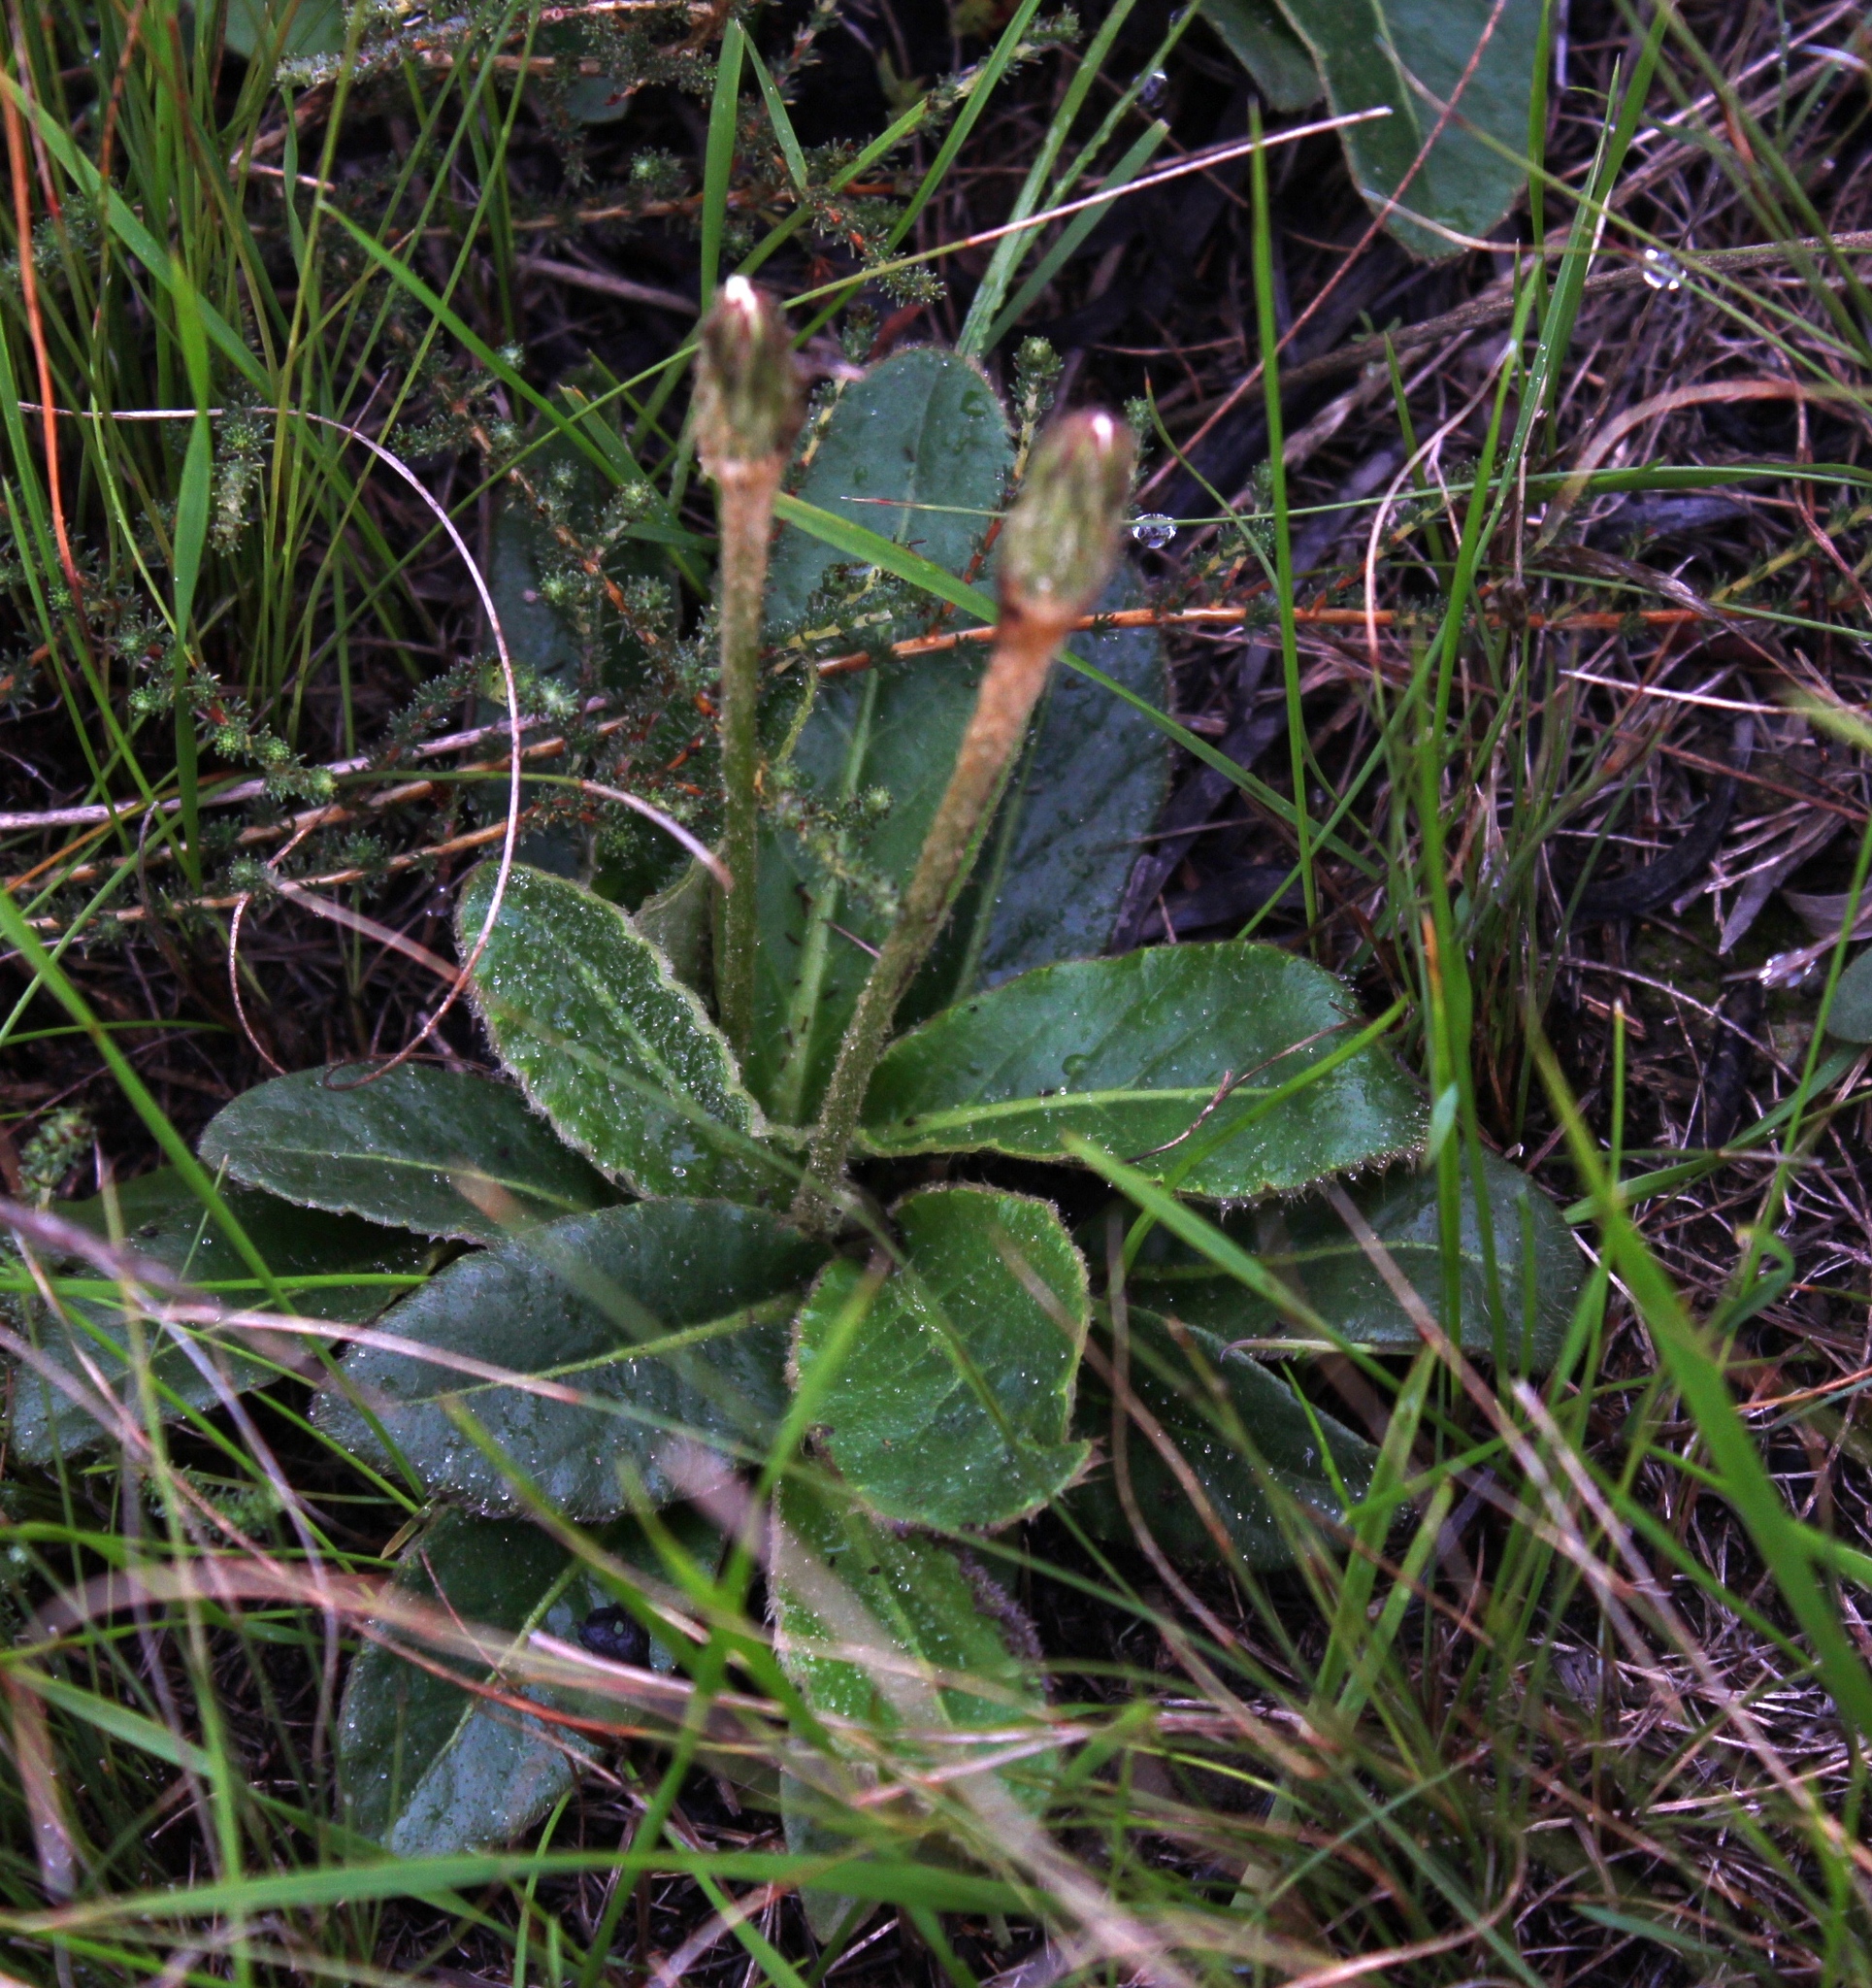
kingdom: Plantae
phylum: Tracheophyta
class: Magnoliopsida
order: Asterales
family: Asteraceae
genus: Zyrphelis
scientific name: Zyrphelis crenata
